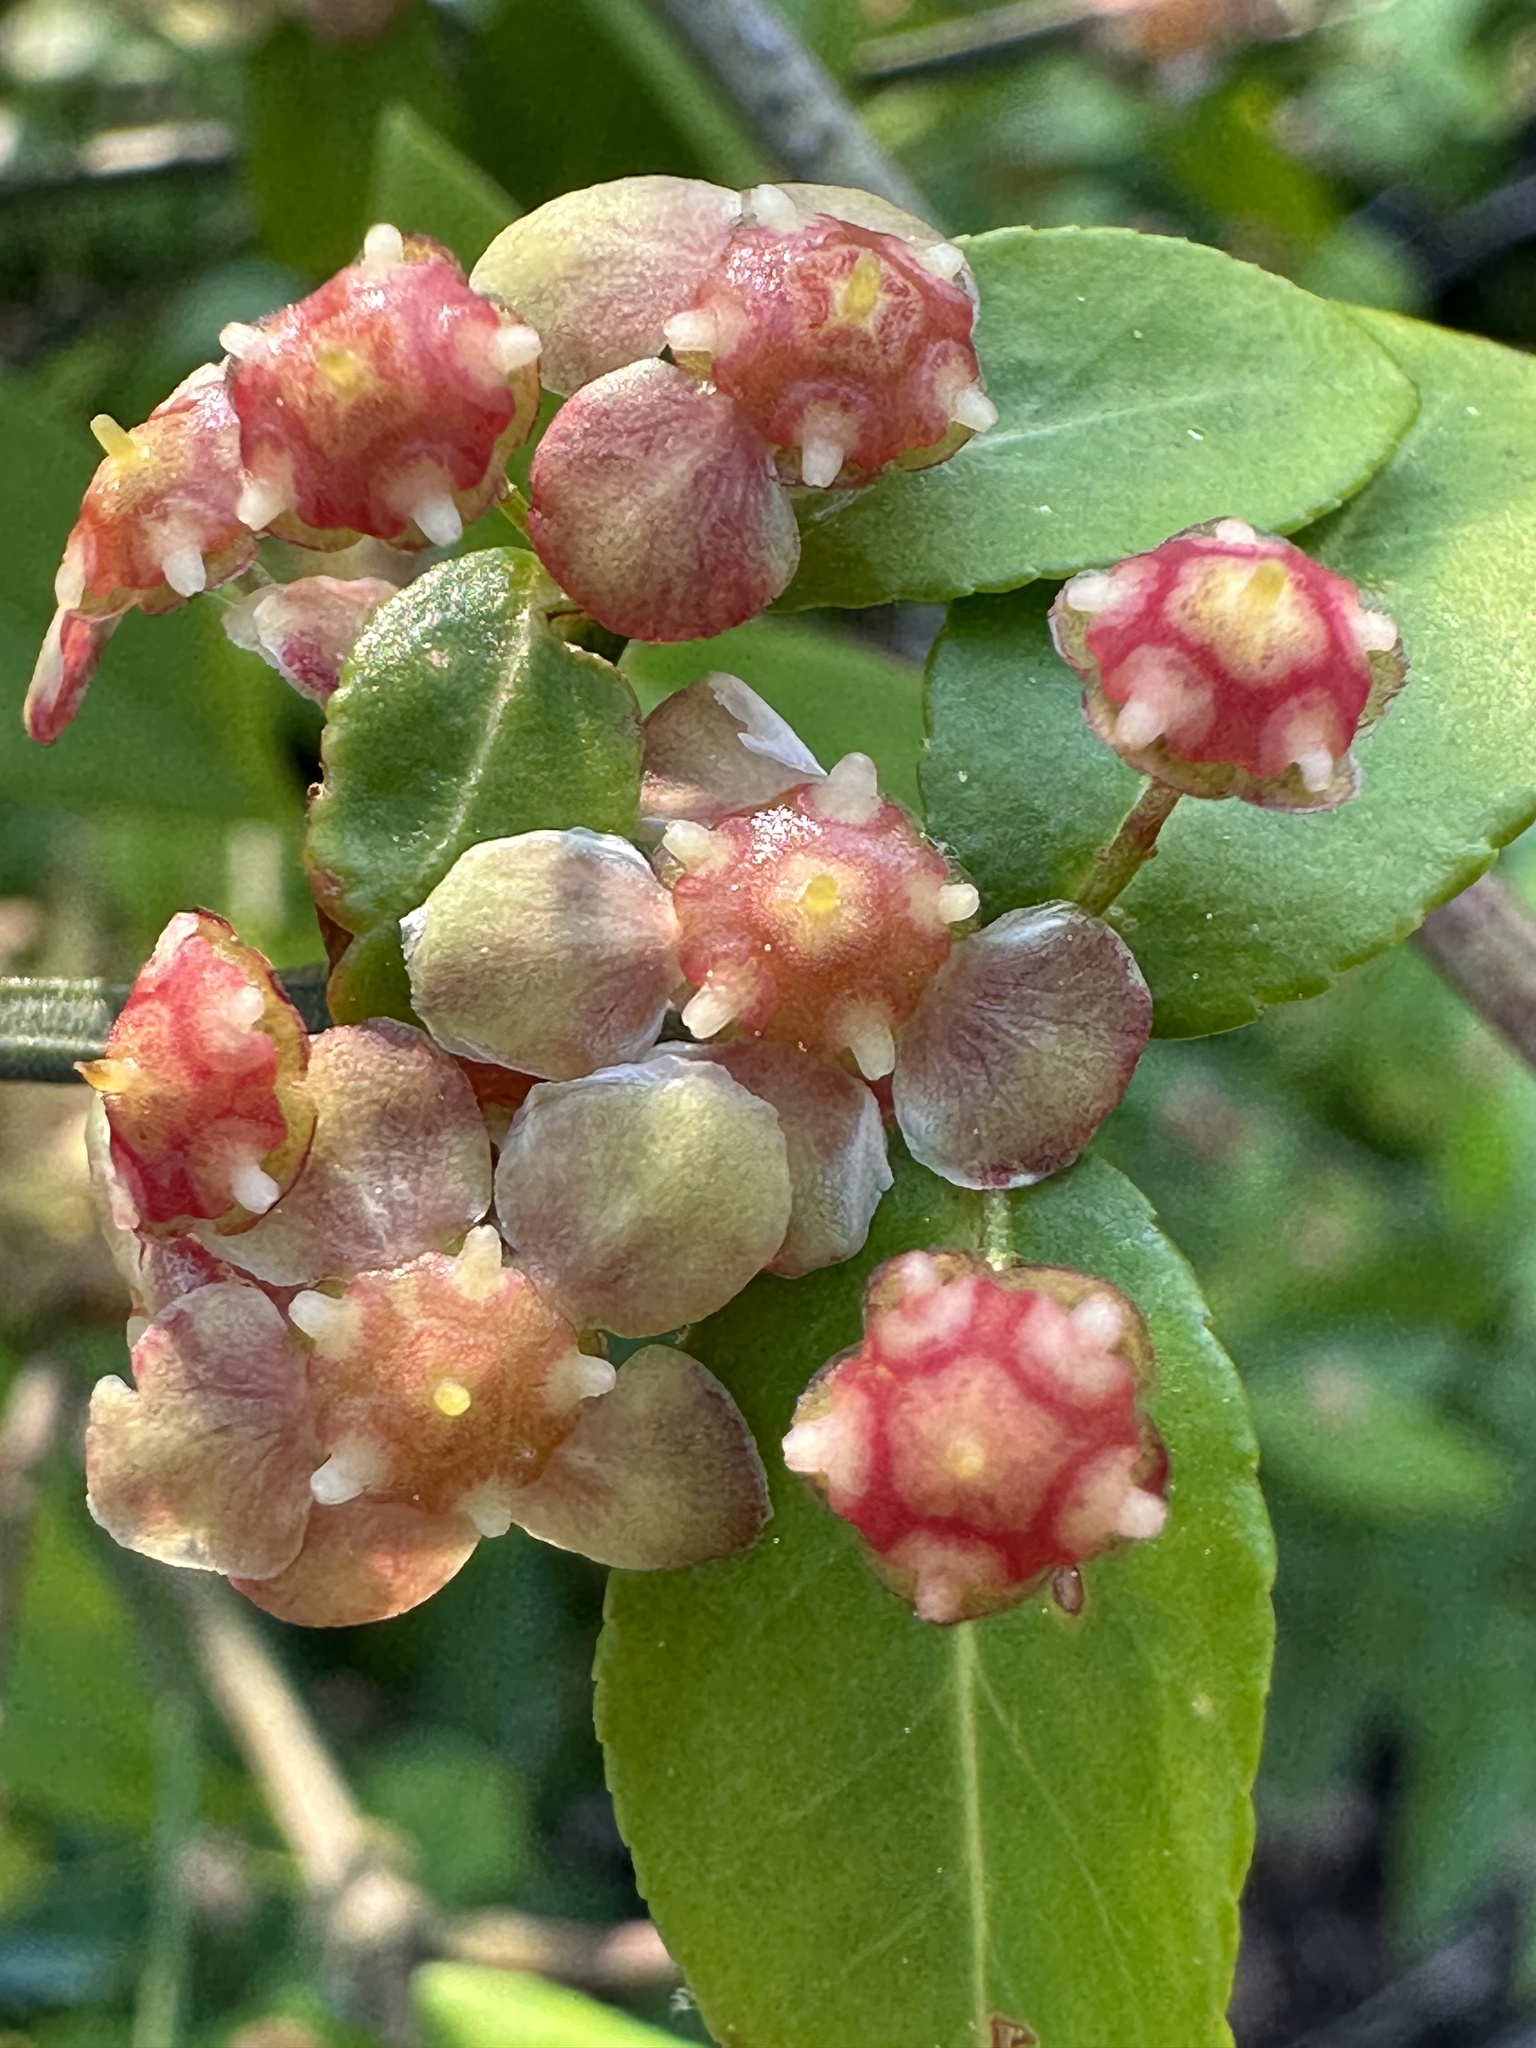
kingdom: Plantae
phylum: Tracheophyta
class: Magnoliopsida
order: Celastrales
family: Celastraceae
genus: Euonymus
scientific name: Euonymus americanus
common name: Bursting-heart
